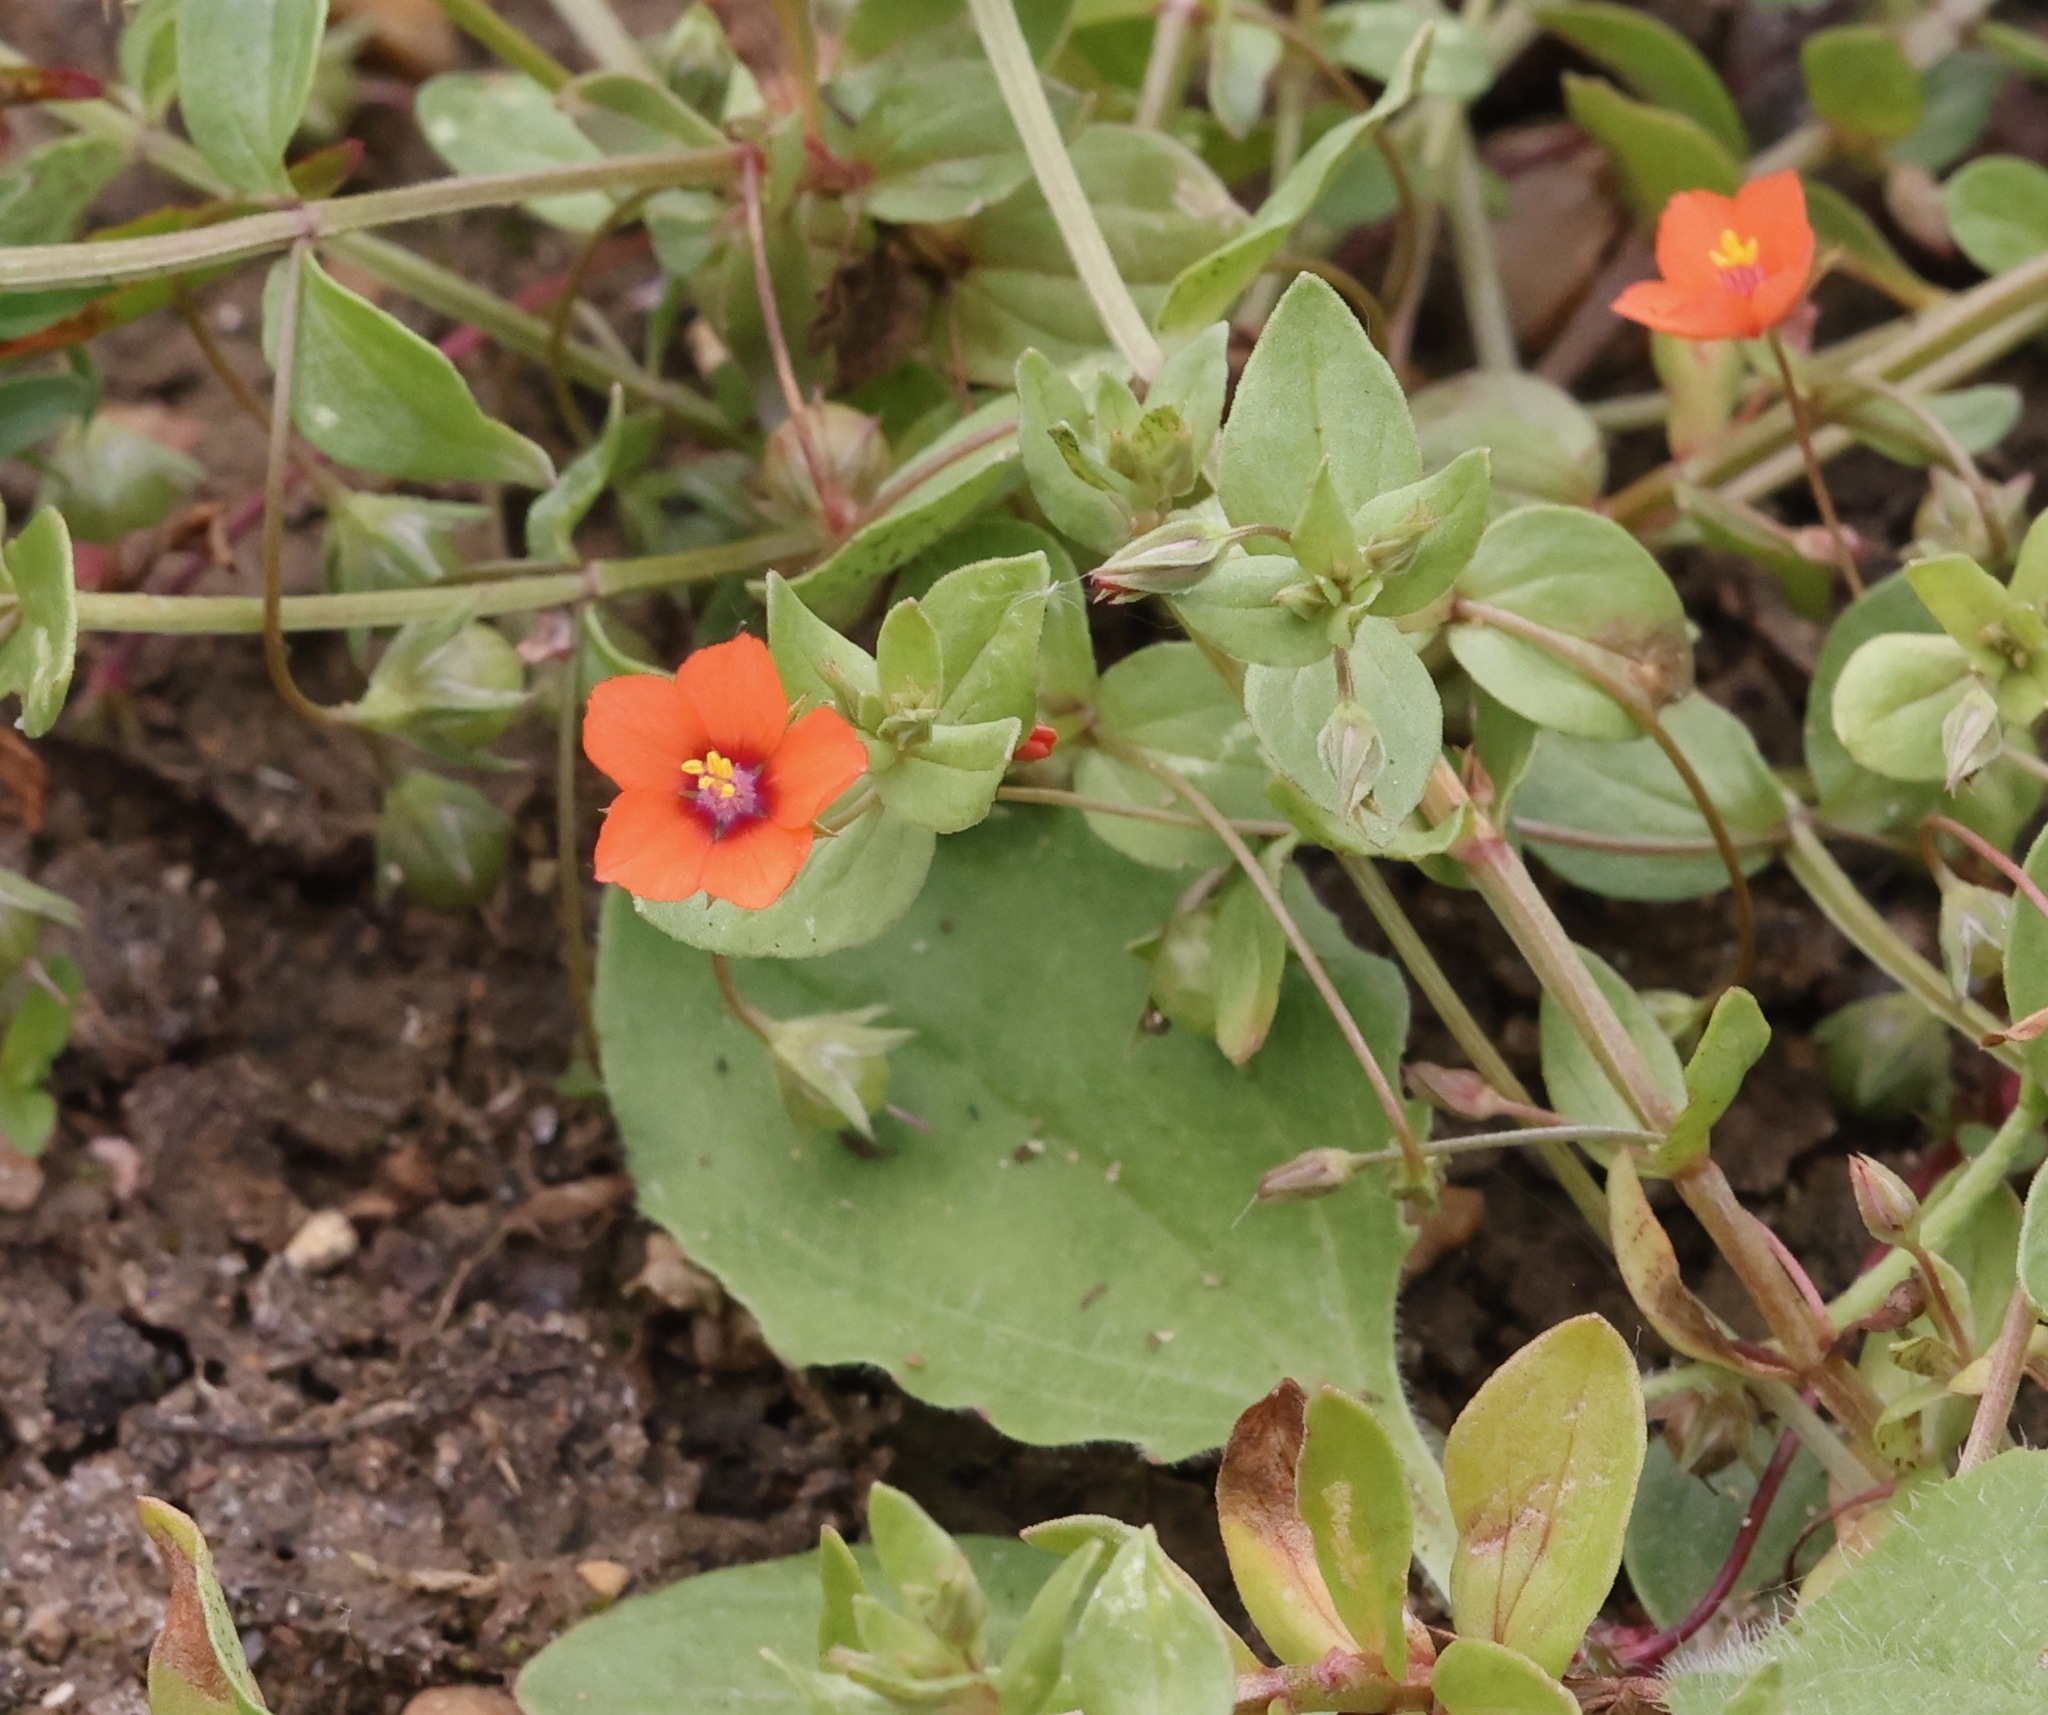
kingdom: Plantae
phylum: Tracheophyta
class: Magnoliopsida
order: Ericales
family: Primulaceae
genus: Lysimachia
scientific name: Lysimachia arvensis
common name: Scarlet pimpernel
